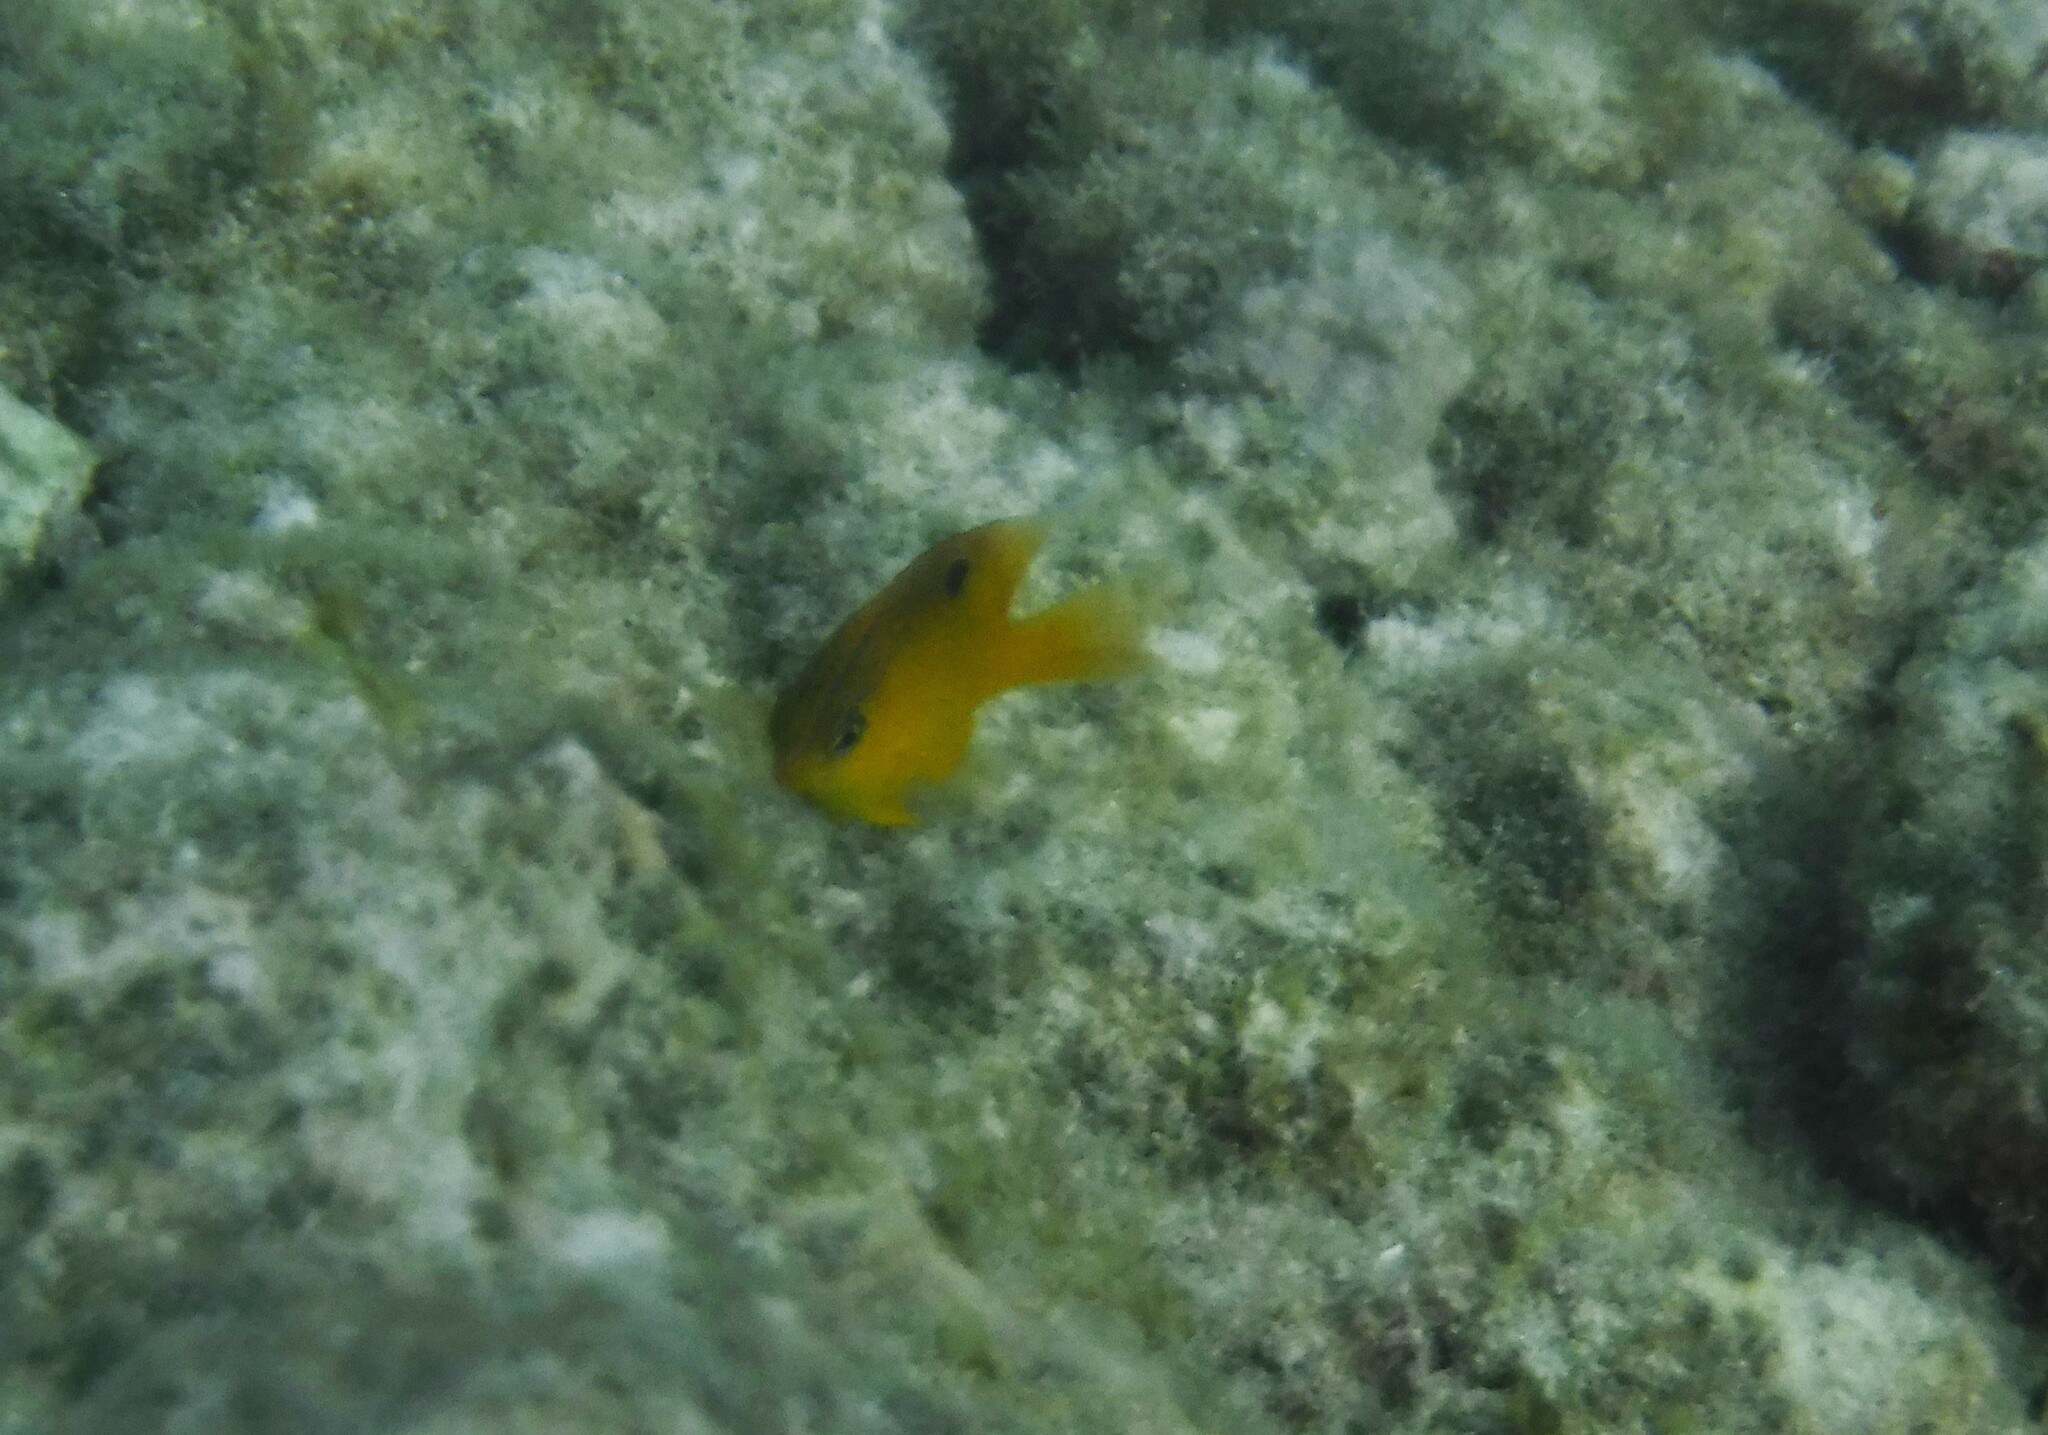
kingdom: Animalia
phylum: Chordata
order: Perciformes
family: Pomacentridae
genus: Stegastes
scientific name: Stegastes diencaeus
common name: Longfin damselfish
